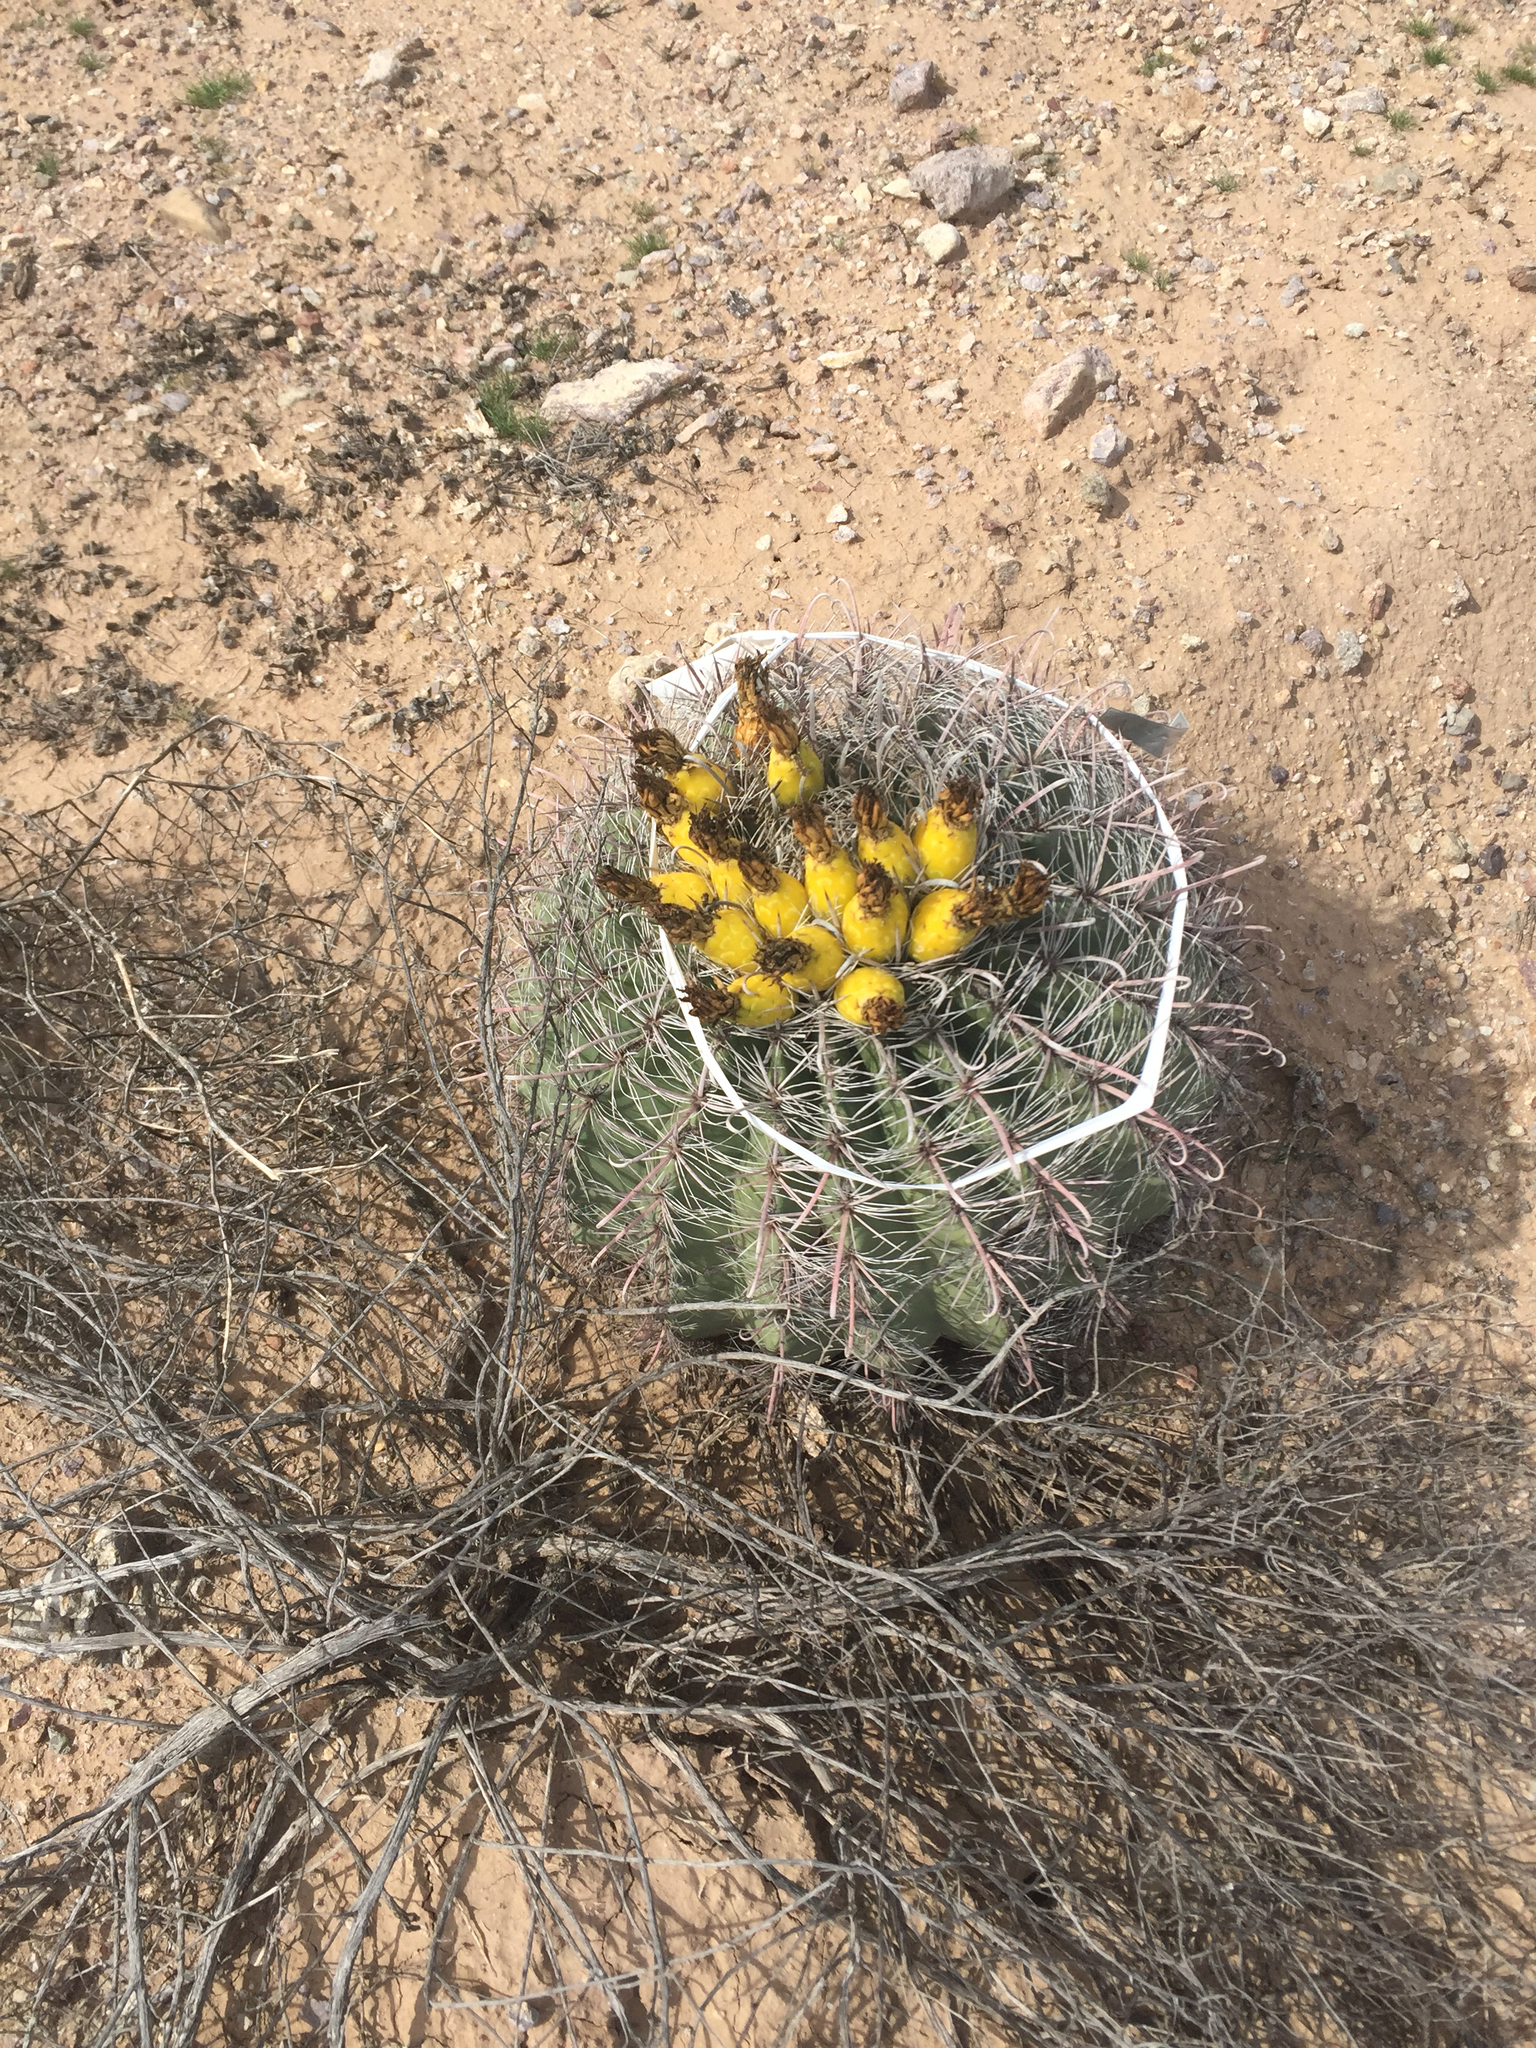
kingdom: Plantae
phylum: Tracheophyta
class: Magnoliopsida
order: Caryophyllales
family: Cactaceae
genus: Ferocactus
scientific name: Ferocactus wislizeni
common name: Candy barrel cactus
